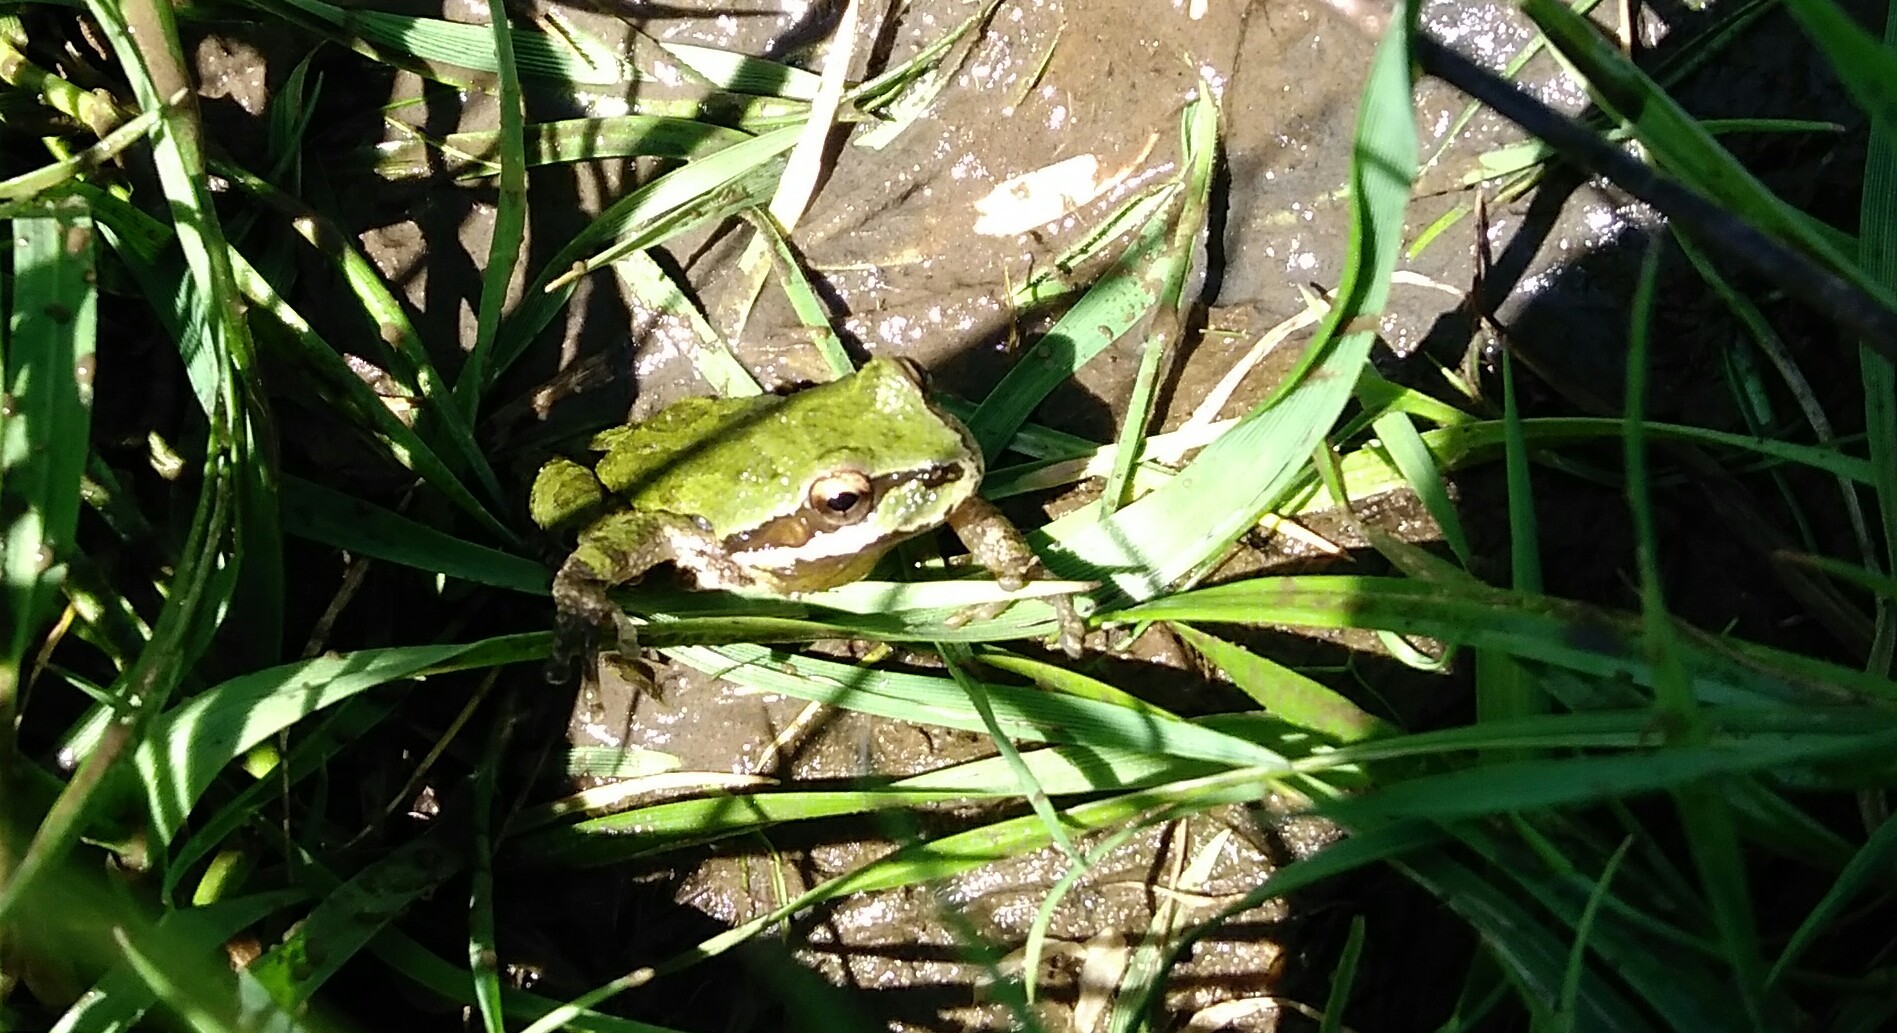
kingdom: Animalia
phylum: Chordata
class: Amphibia
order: Anura
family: Hylidae
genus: Pseudacris
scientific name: Pseudacris regilla
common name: Pacific chorus frog
